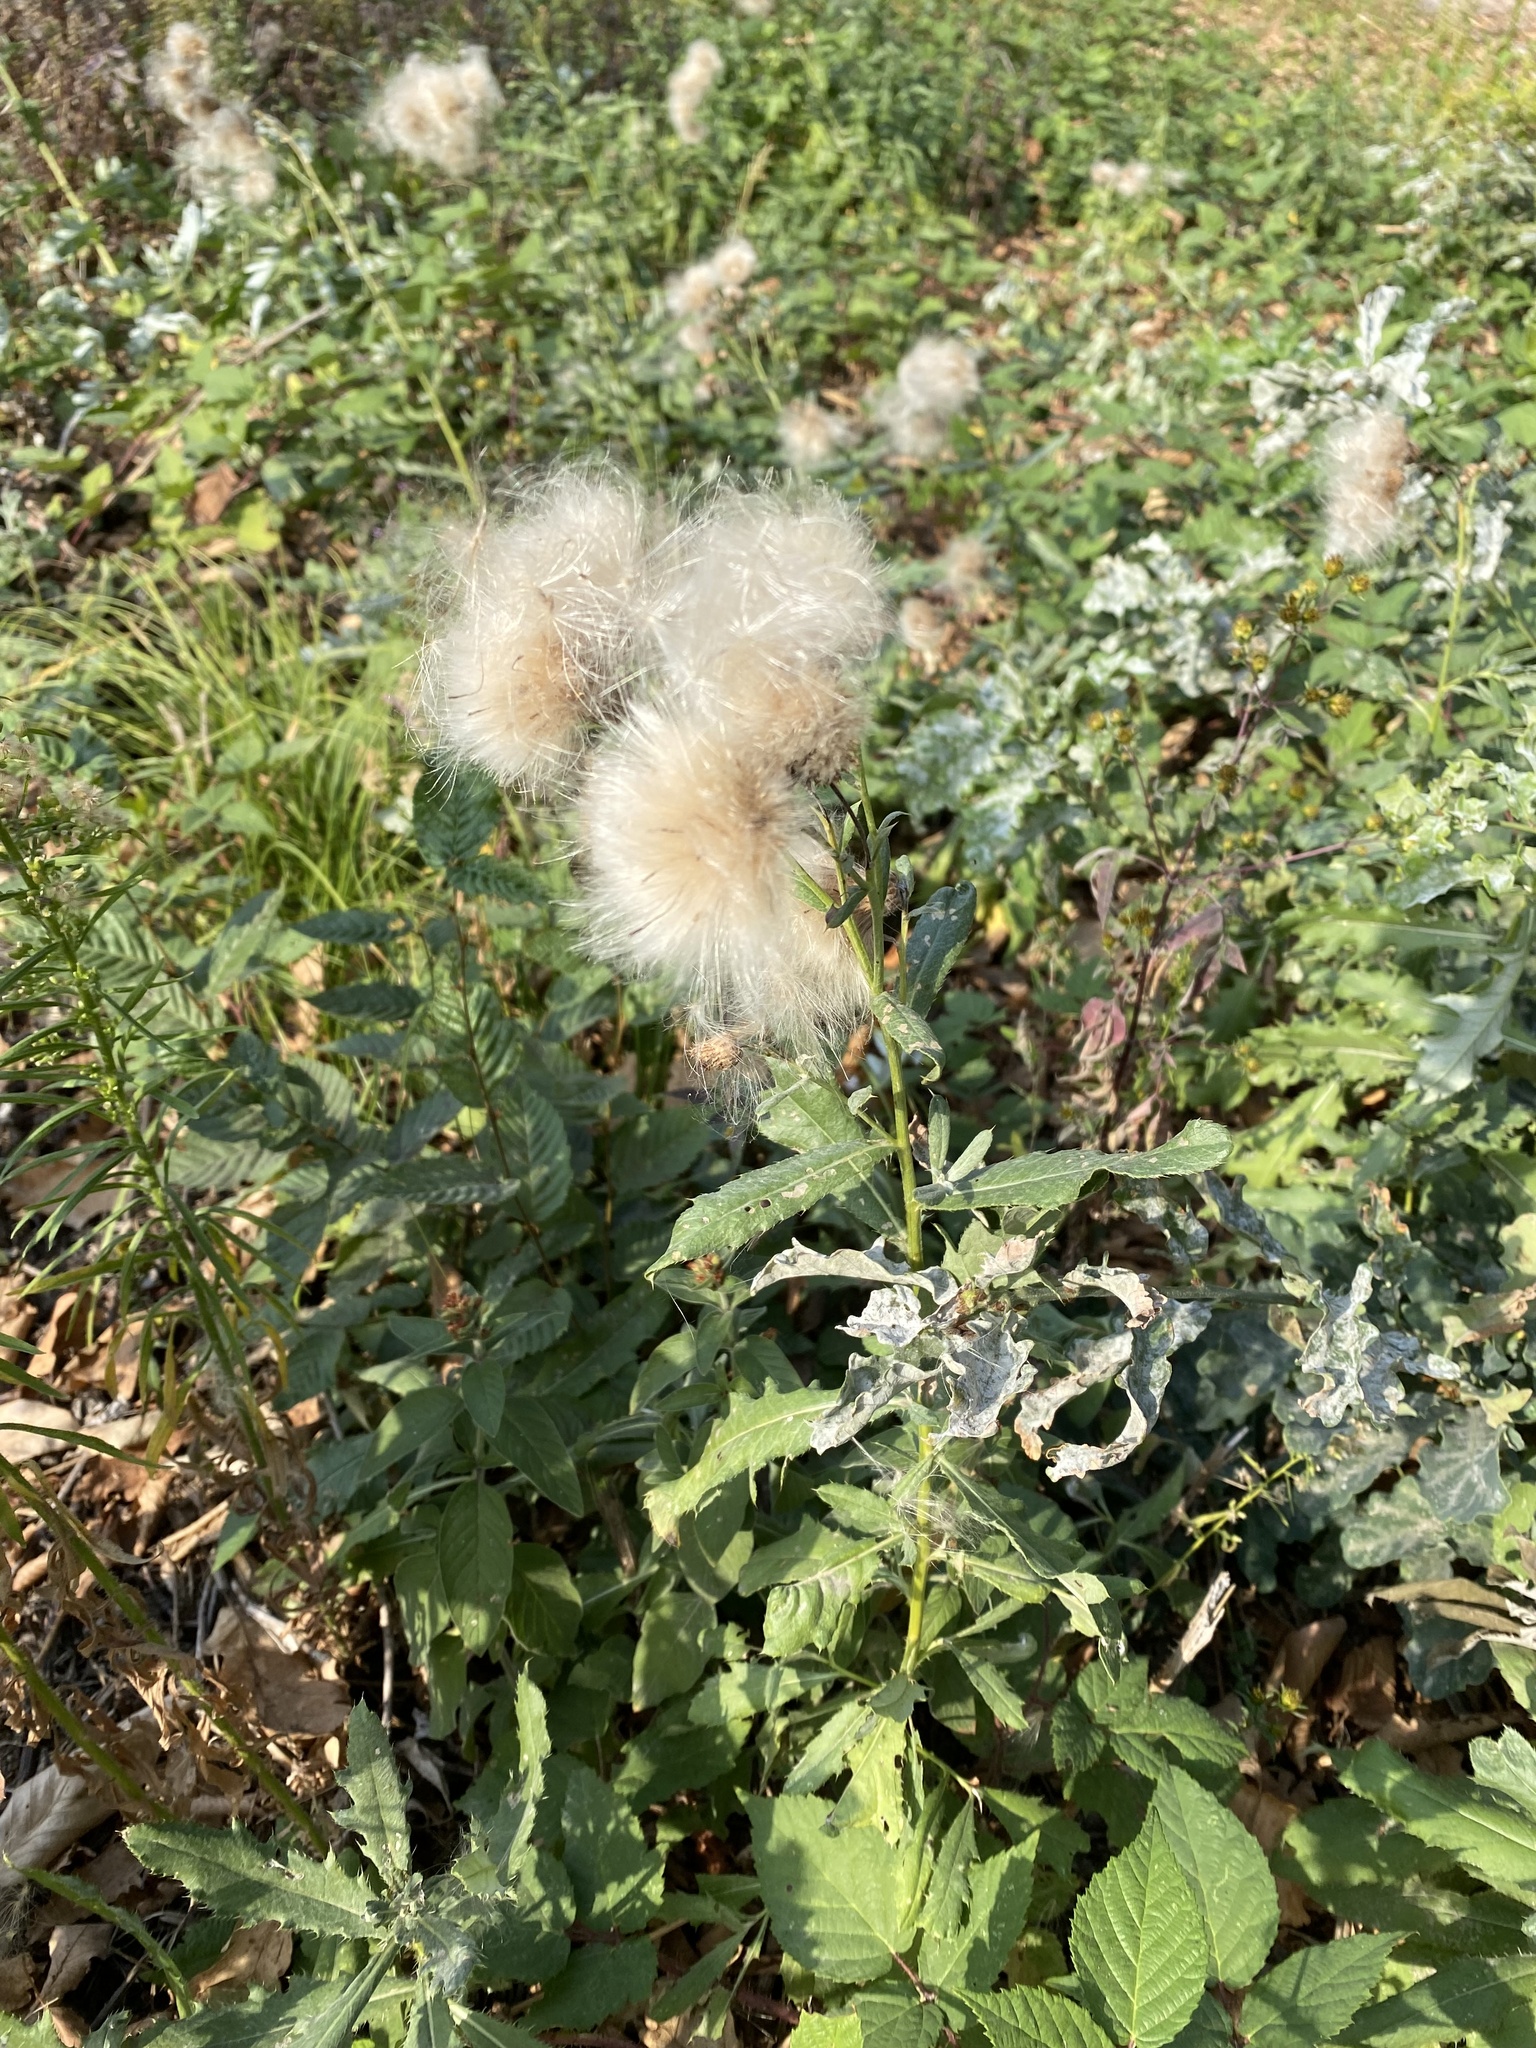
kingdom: Plantae
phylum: Tracheophyta
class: Magnoliopsida
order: Asterales
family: Asteraceae
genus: Cirsium
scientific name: Cirsium arvense
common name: Creeping thistle
